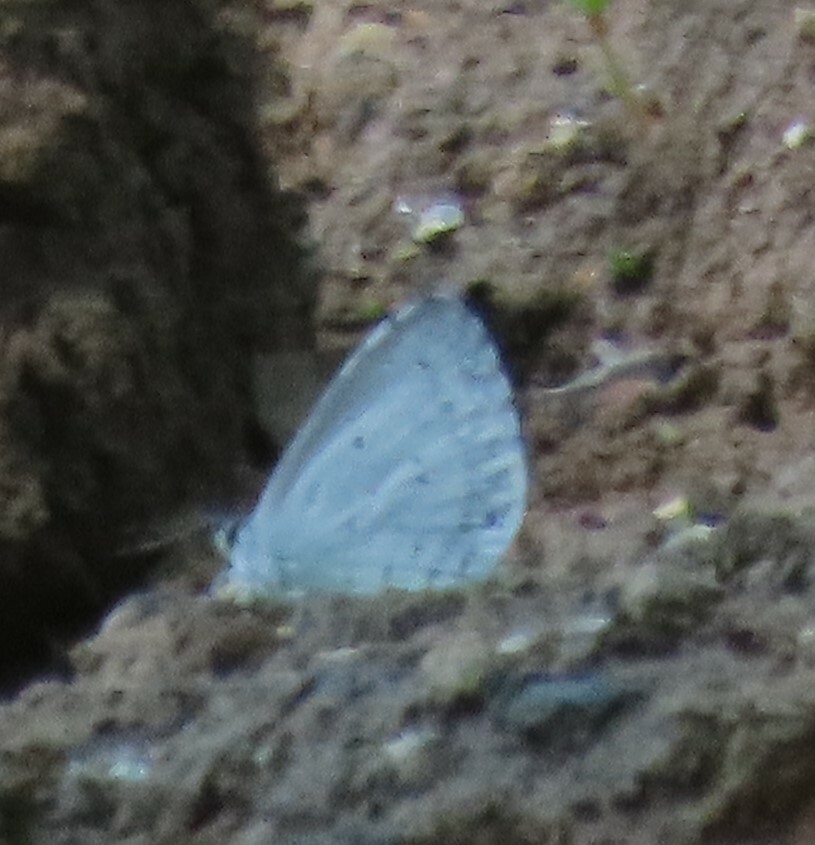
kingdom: Animalia
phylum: Arthropoda
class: Insecta
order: Lepidoptera
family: Lycaenidae
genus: Cyaniris
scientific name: Cyaniris neglecta
